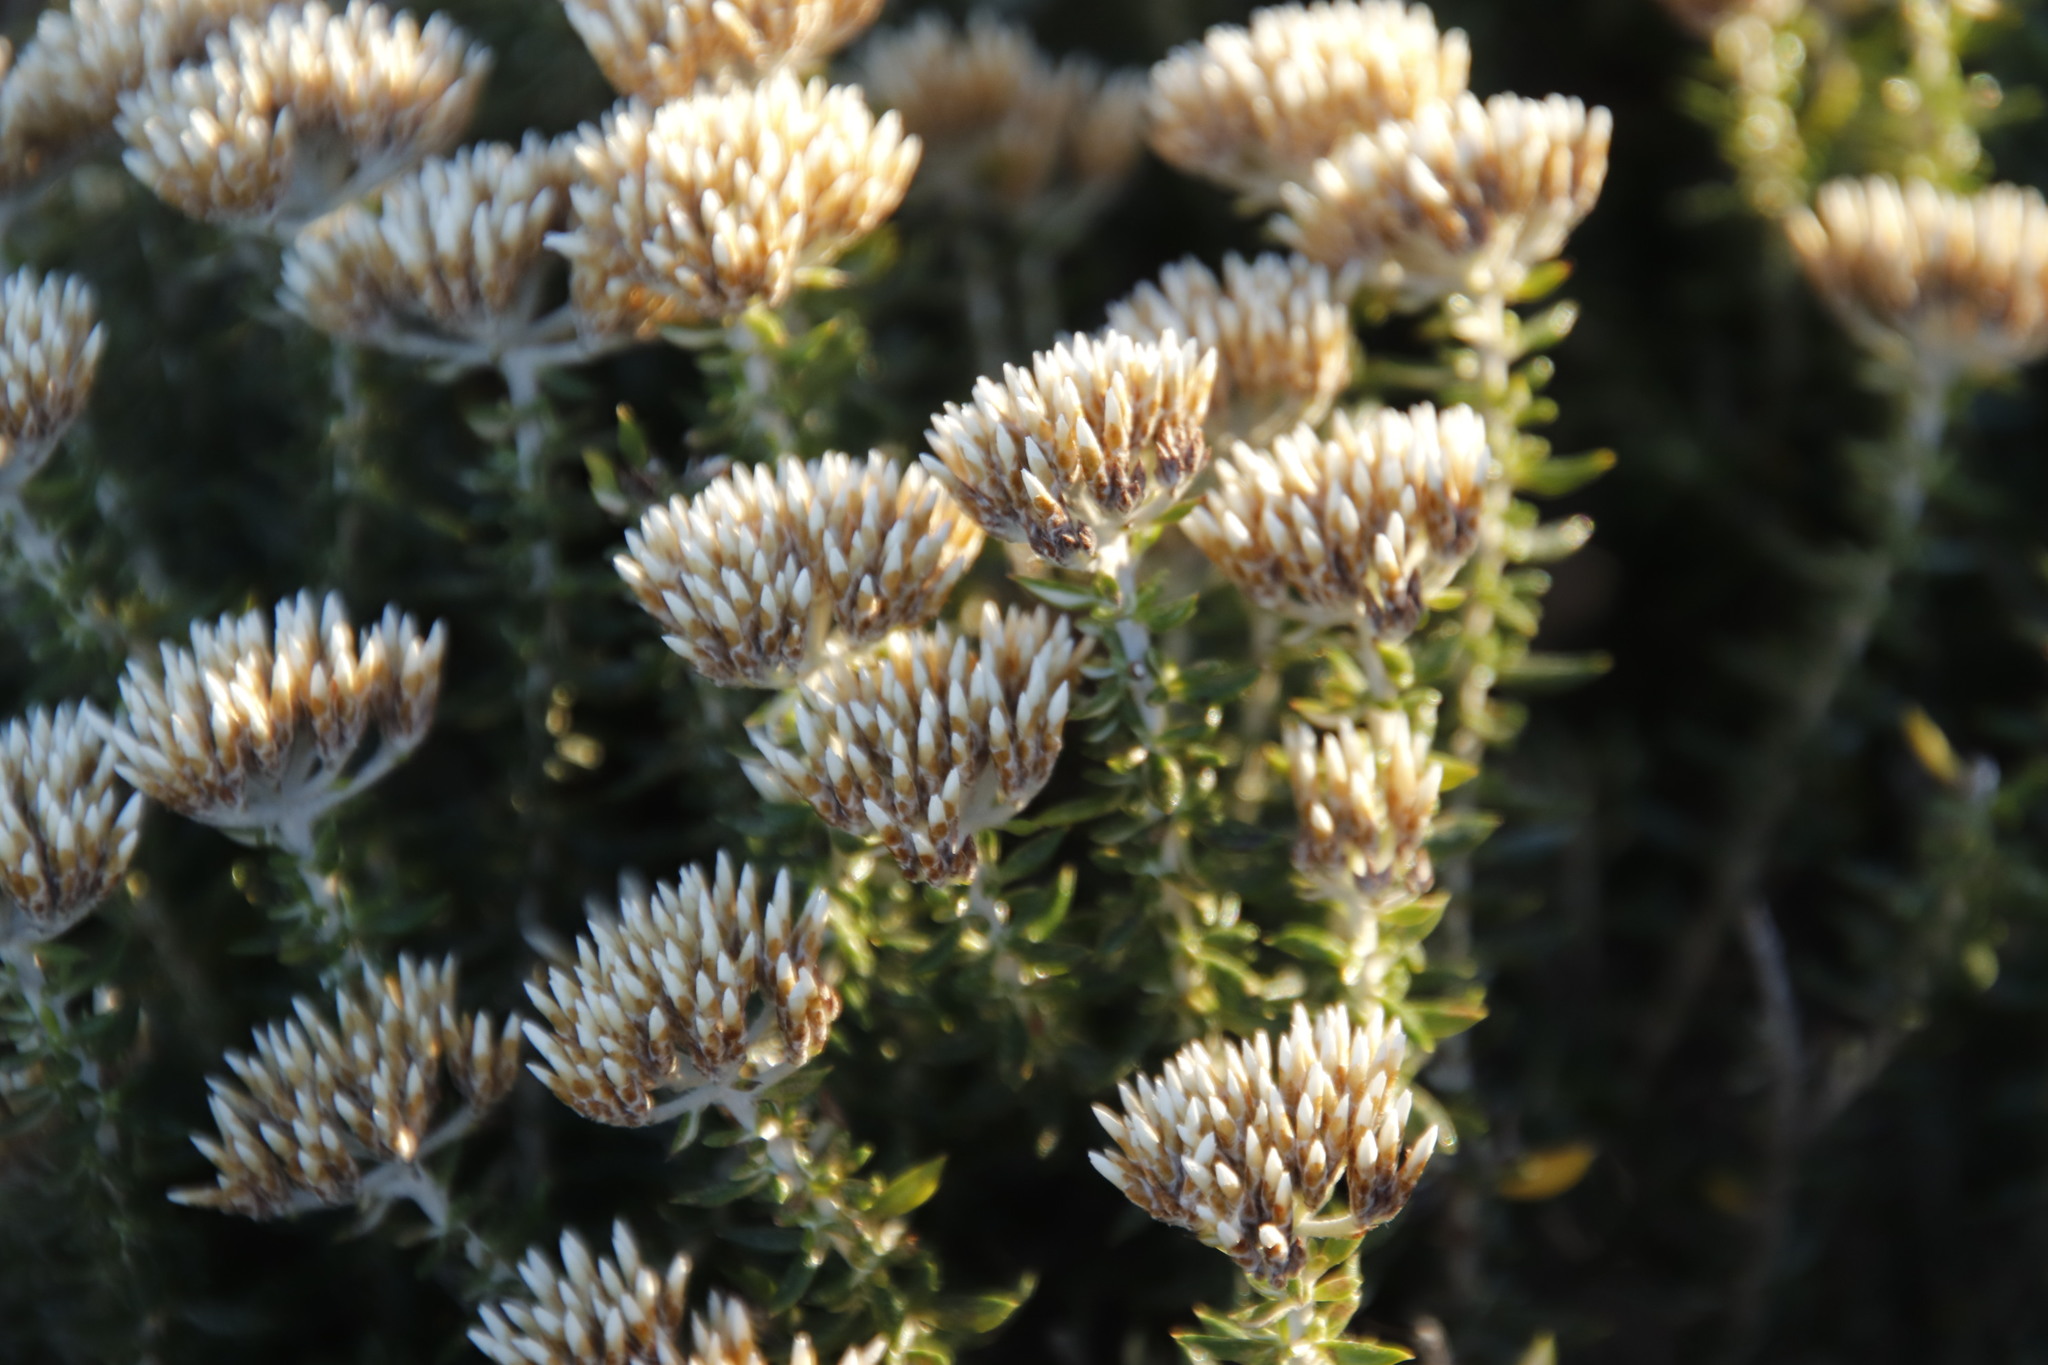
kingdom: Plantae
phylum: Tracheophyta
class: Magnoliopsida
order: Asterales
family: Asteraceae
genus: Metalasia
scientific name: Metalasia densa
